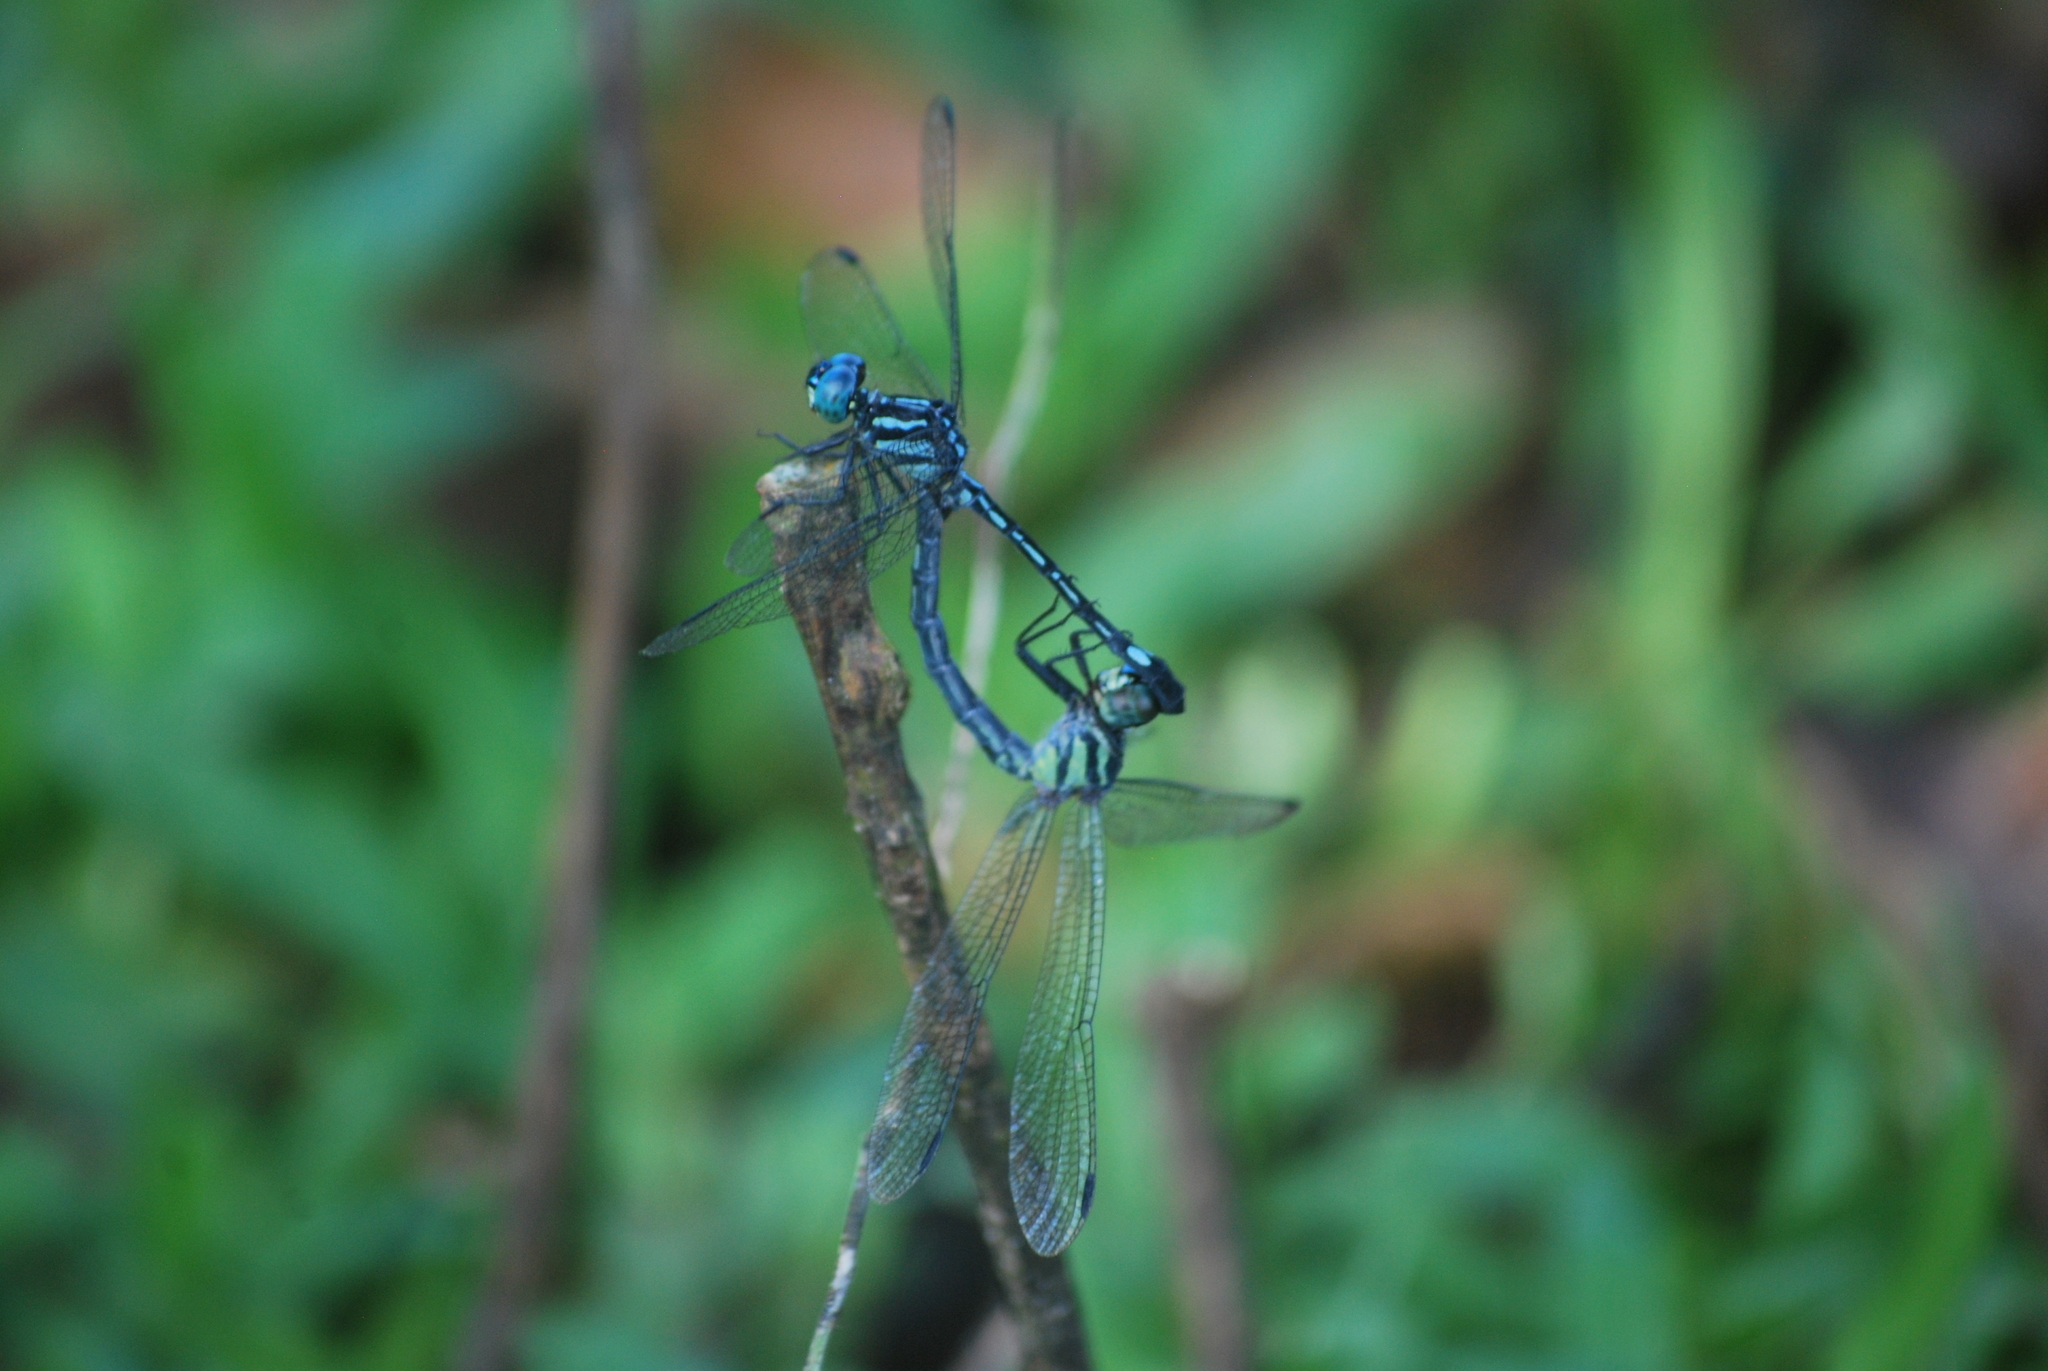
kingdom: Animalia
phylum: Arthropoda
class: Insecta
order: Odonata
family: Libellulidae
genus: Hylaeothemis
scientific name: Hylaeothemis apicalis
